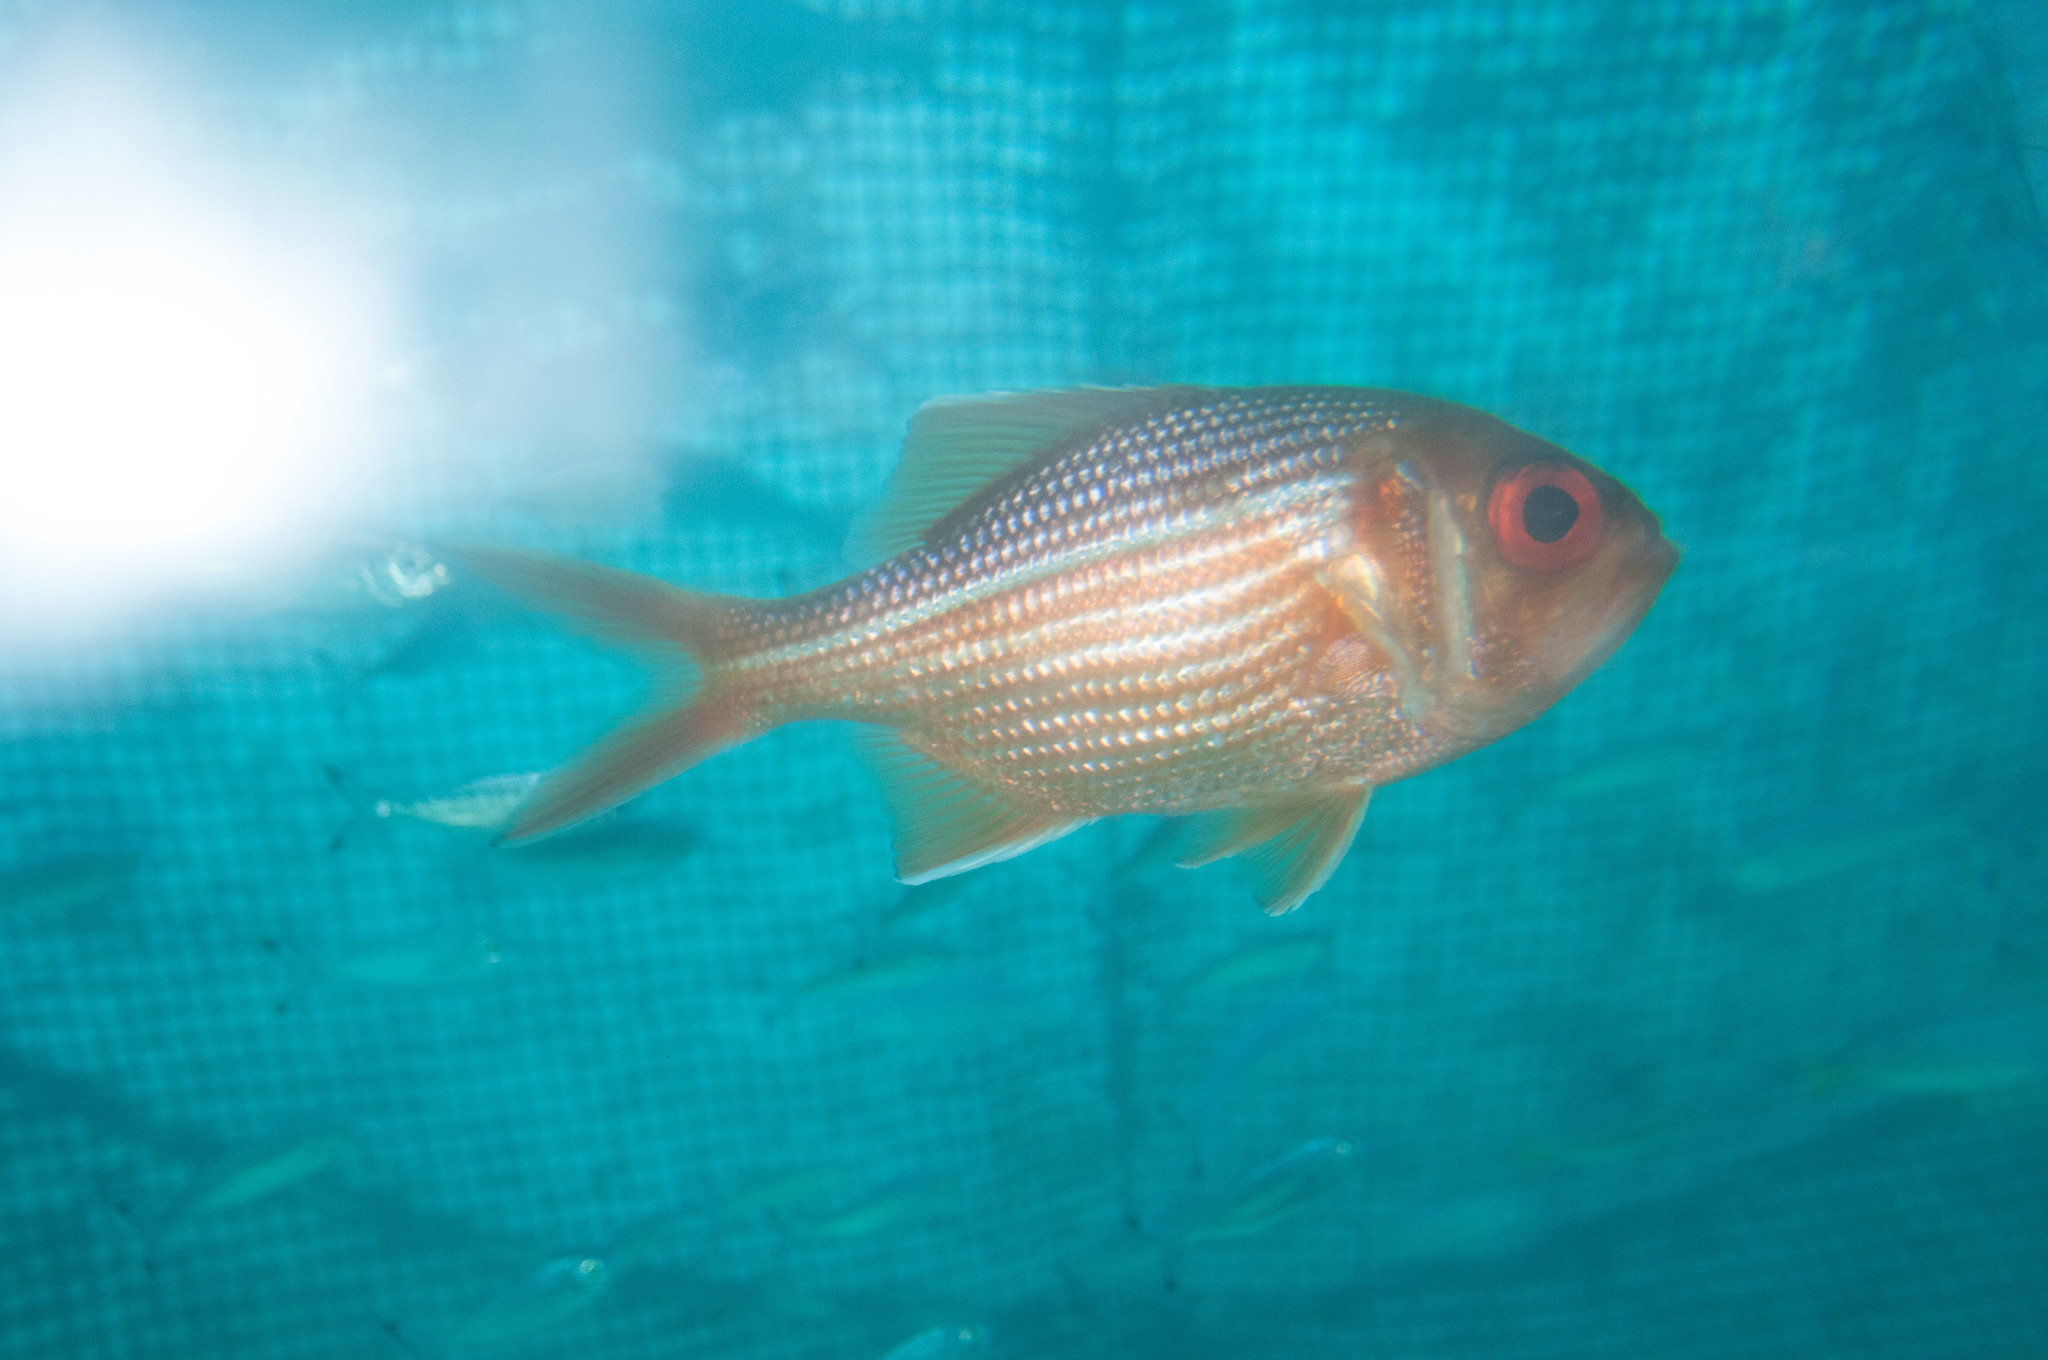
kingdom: Animalia
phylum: Chordata
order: Beryciformes
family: Berycidae
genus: Centroberyx
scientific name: Centroberyx gerrardi
